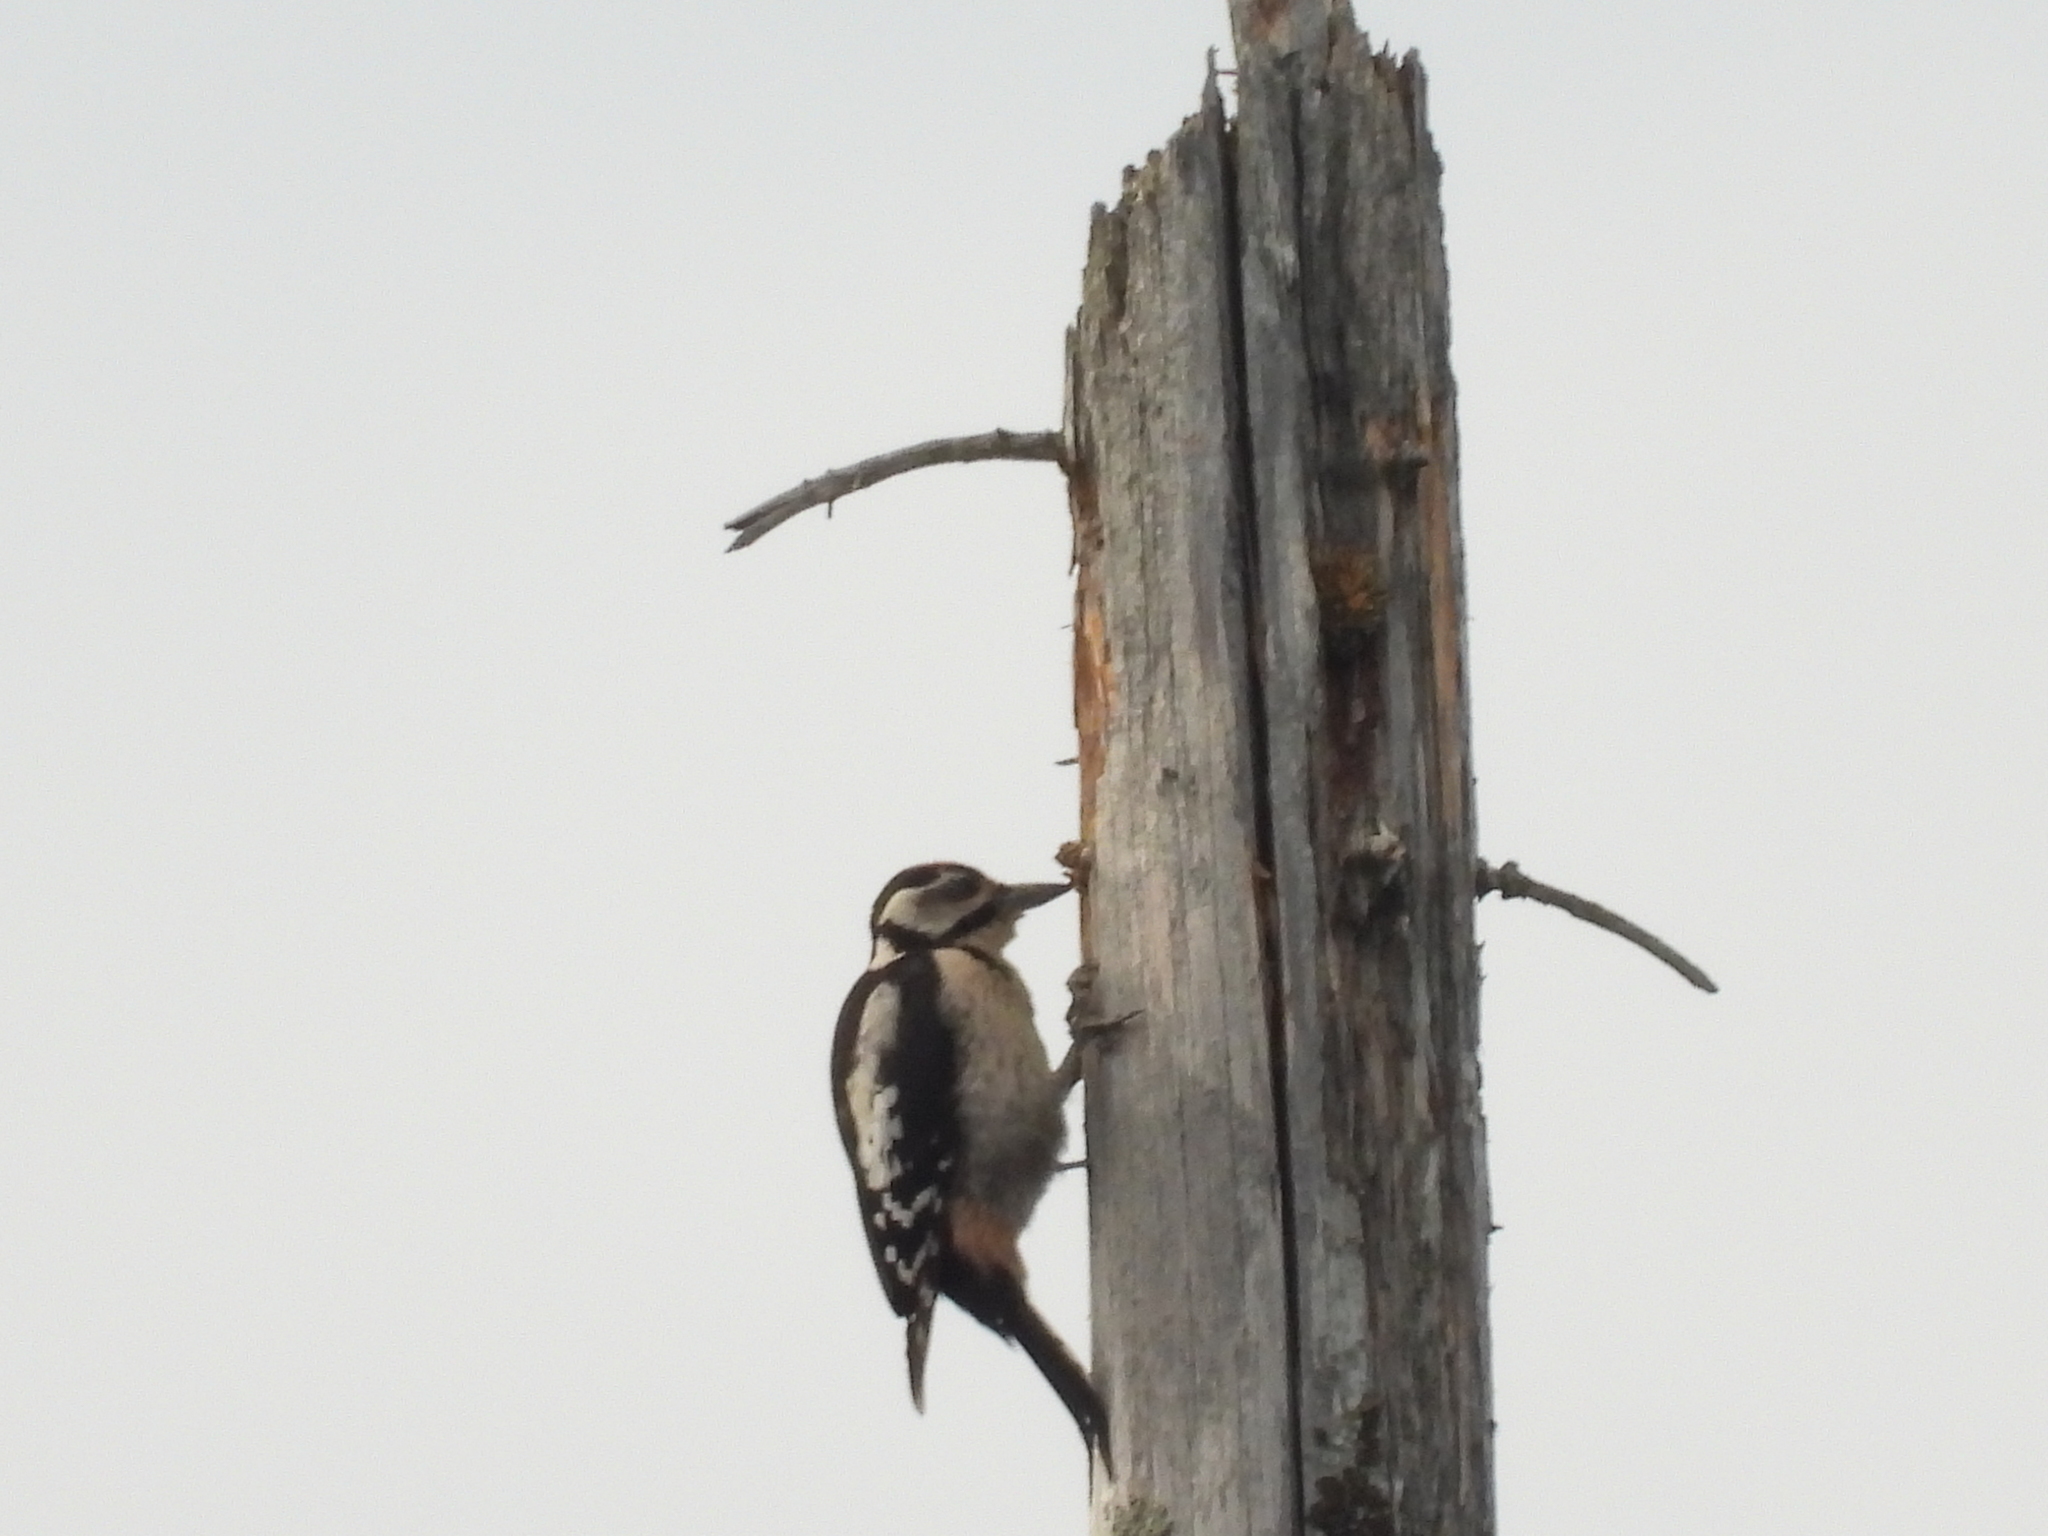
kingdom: Animalia
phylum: Chordata
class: Aves
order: Piciformes
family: Picidae
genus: Dendrocopos
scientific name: Dendrocopos major
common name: Great spotted woodpecker
